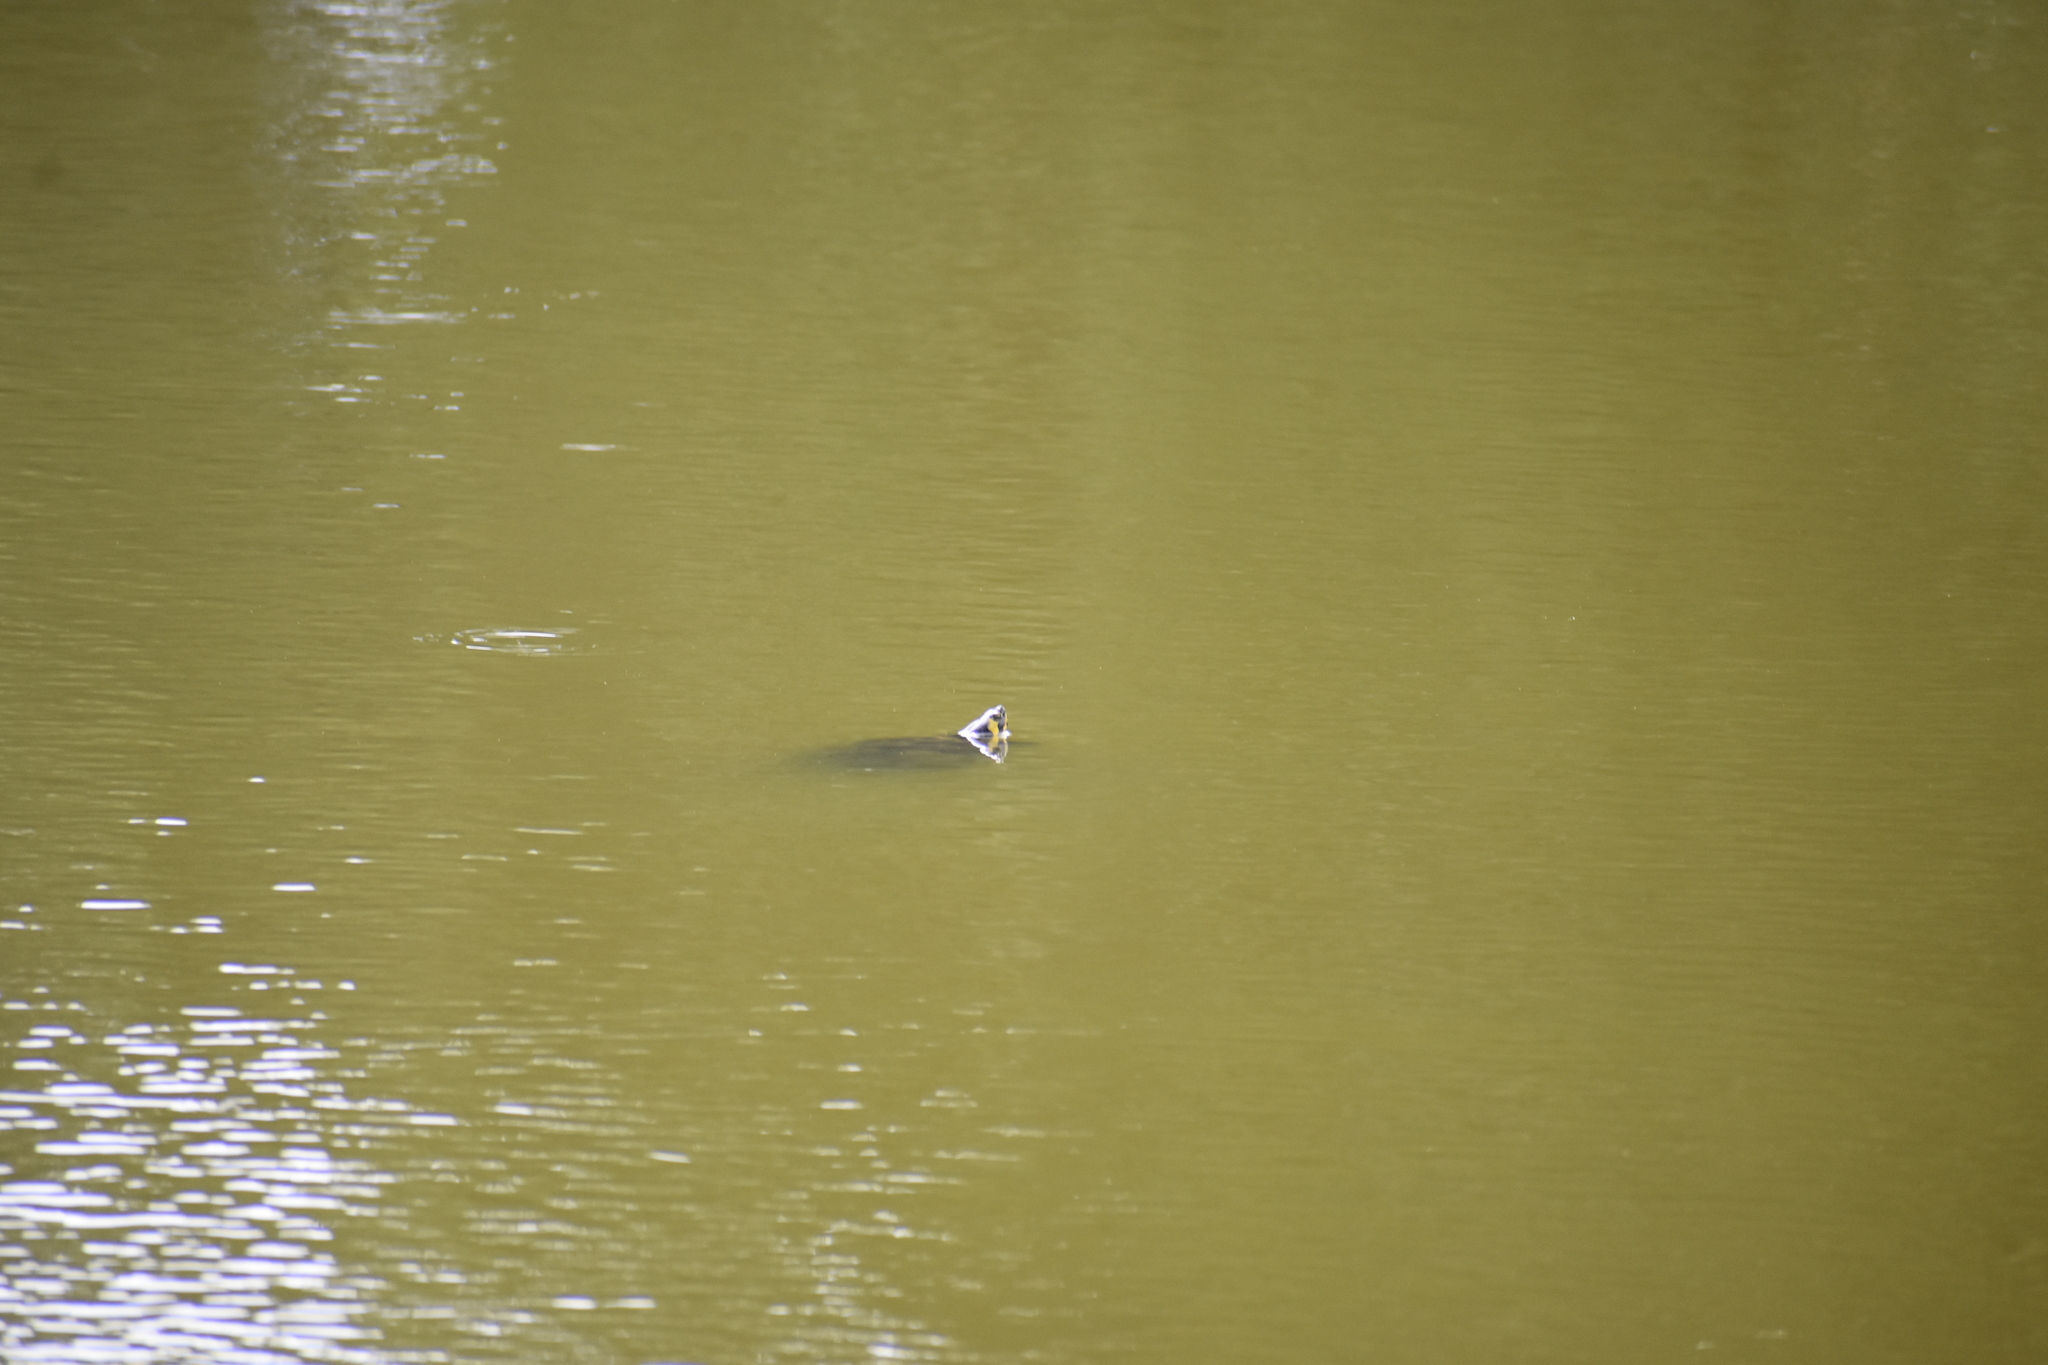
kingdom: Animalia
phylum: Chordata
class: Testudines
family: Emydidae
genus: Trachemys
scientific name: Trachemys scripta
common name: Slider
